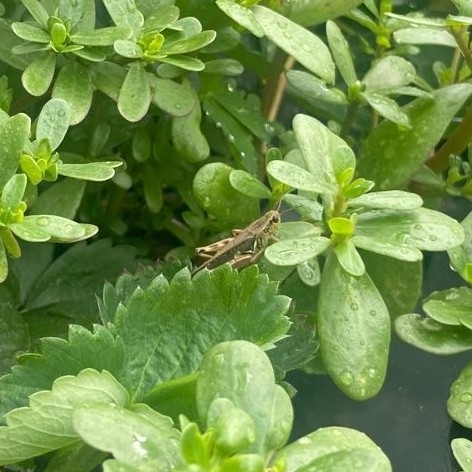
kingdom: Animalia
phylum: Arthropoda
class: Insecta
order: Orthoptera
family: Acrididae
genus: Melanoplus
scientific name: Melanoplus femurrubrum
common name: Red-legged grasshopper
